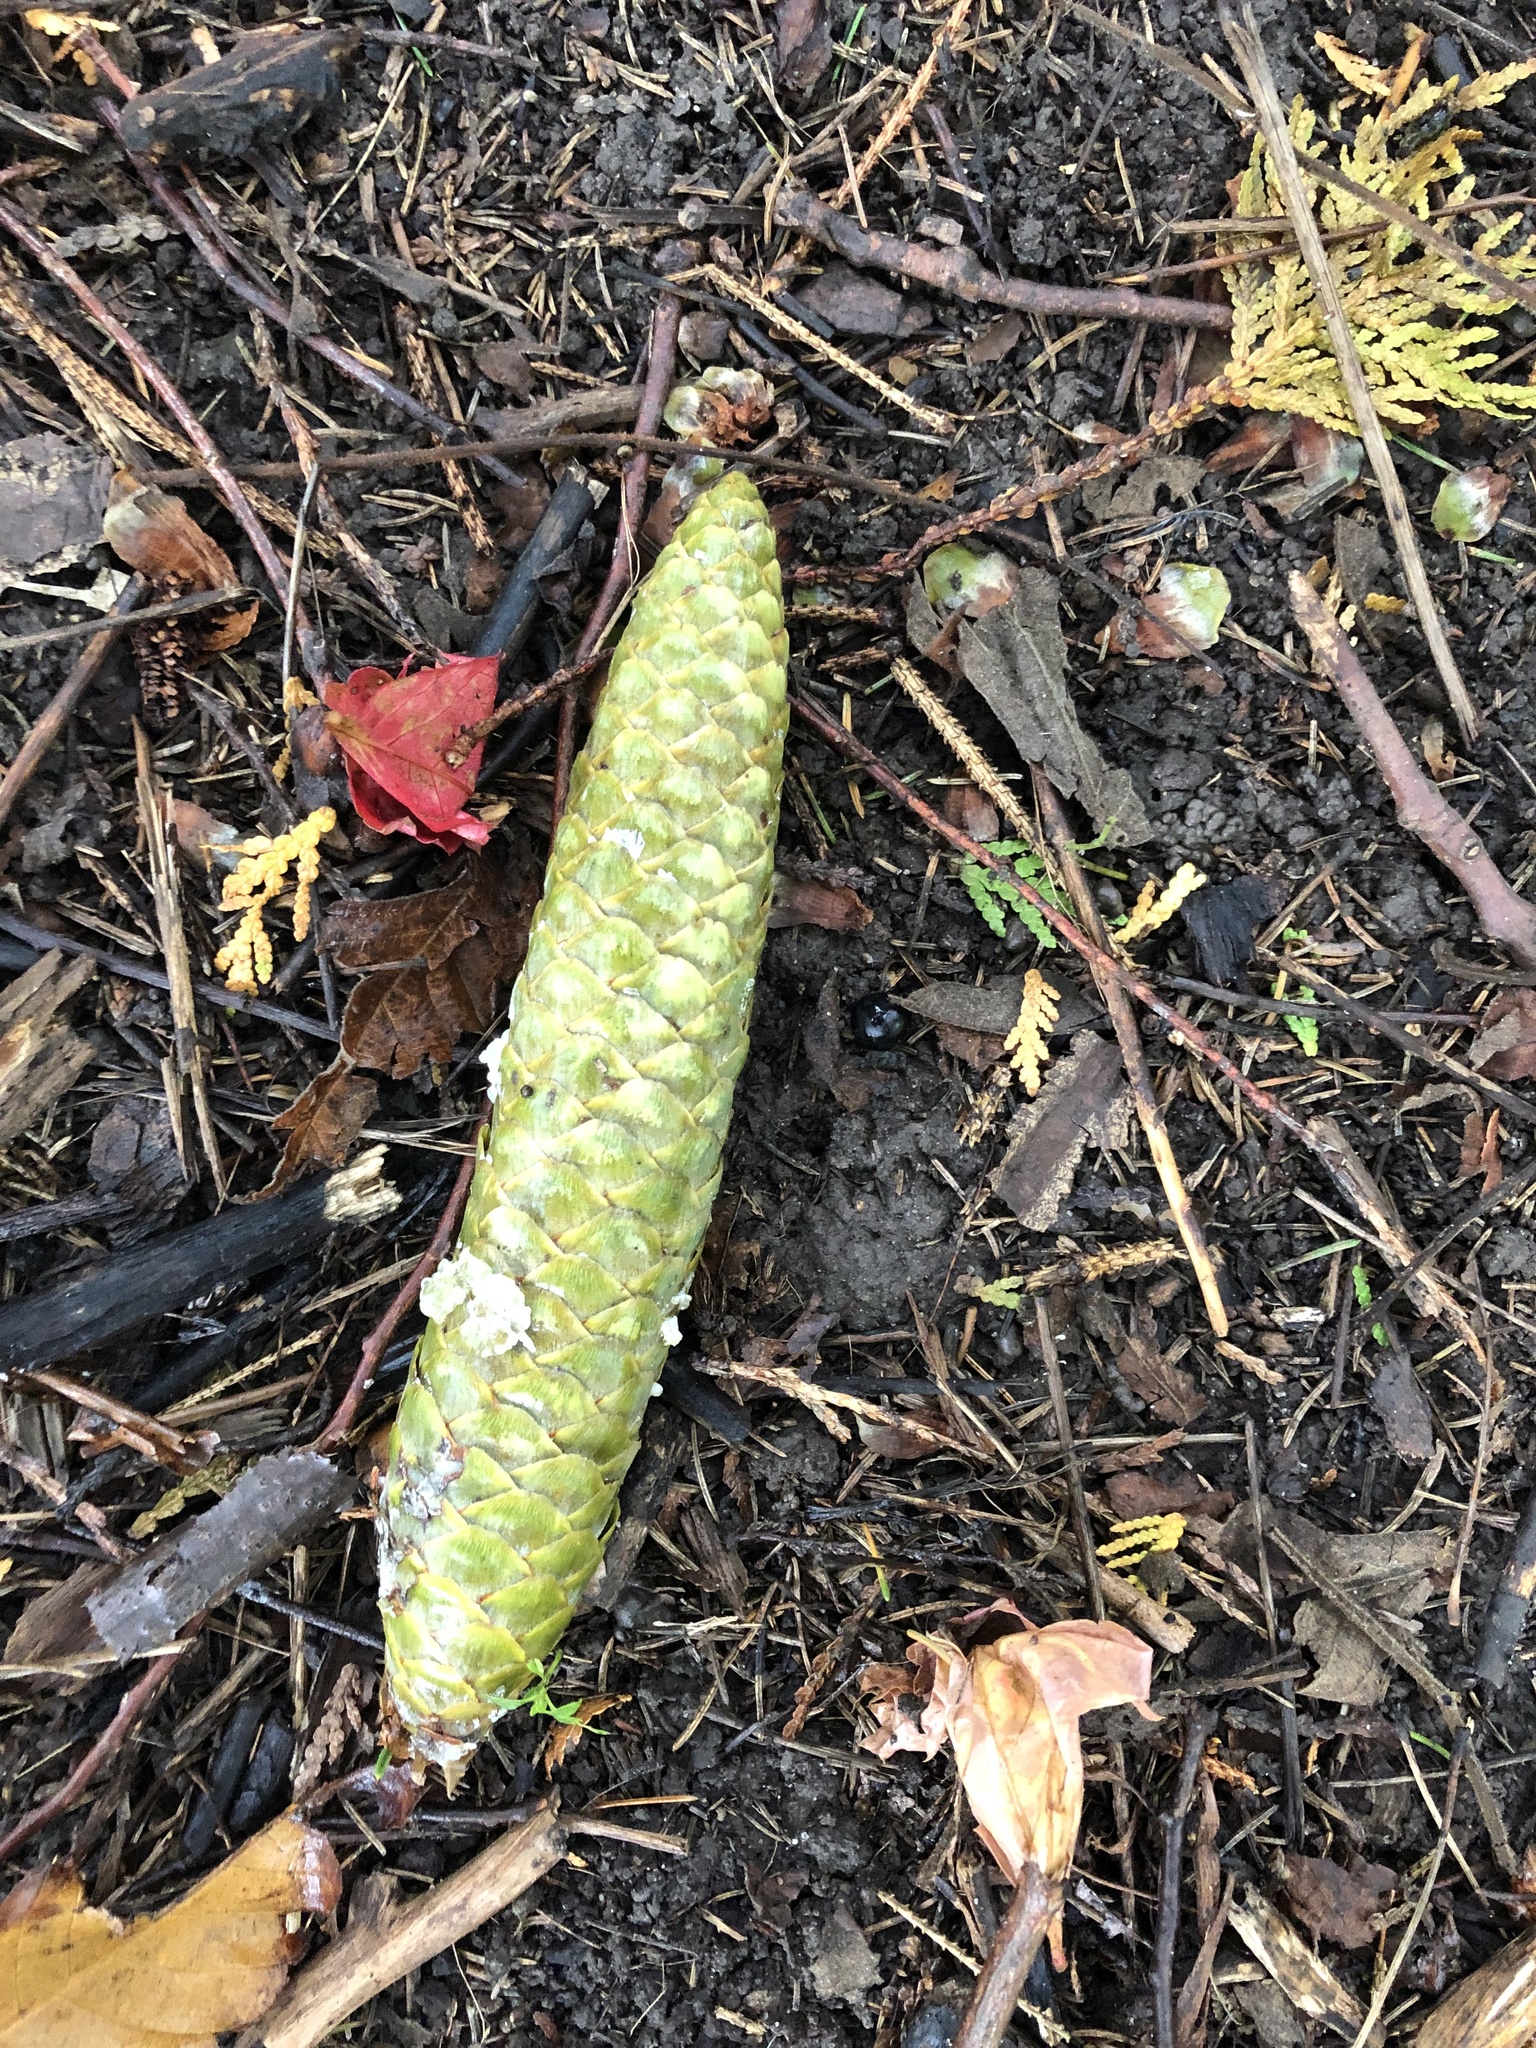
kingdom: Plantae
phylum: Tracheophyta
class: Pinopsida
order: Pinales
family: Pinaceae
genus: Picea
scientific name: Picea abies
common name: Norway spruce
